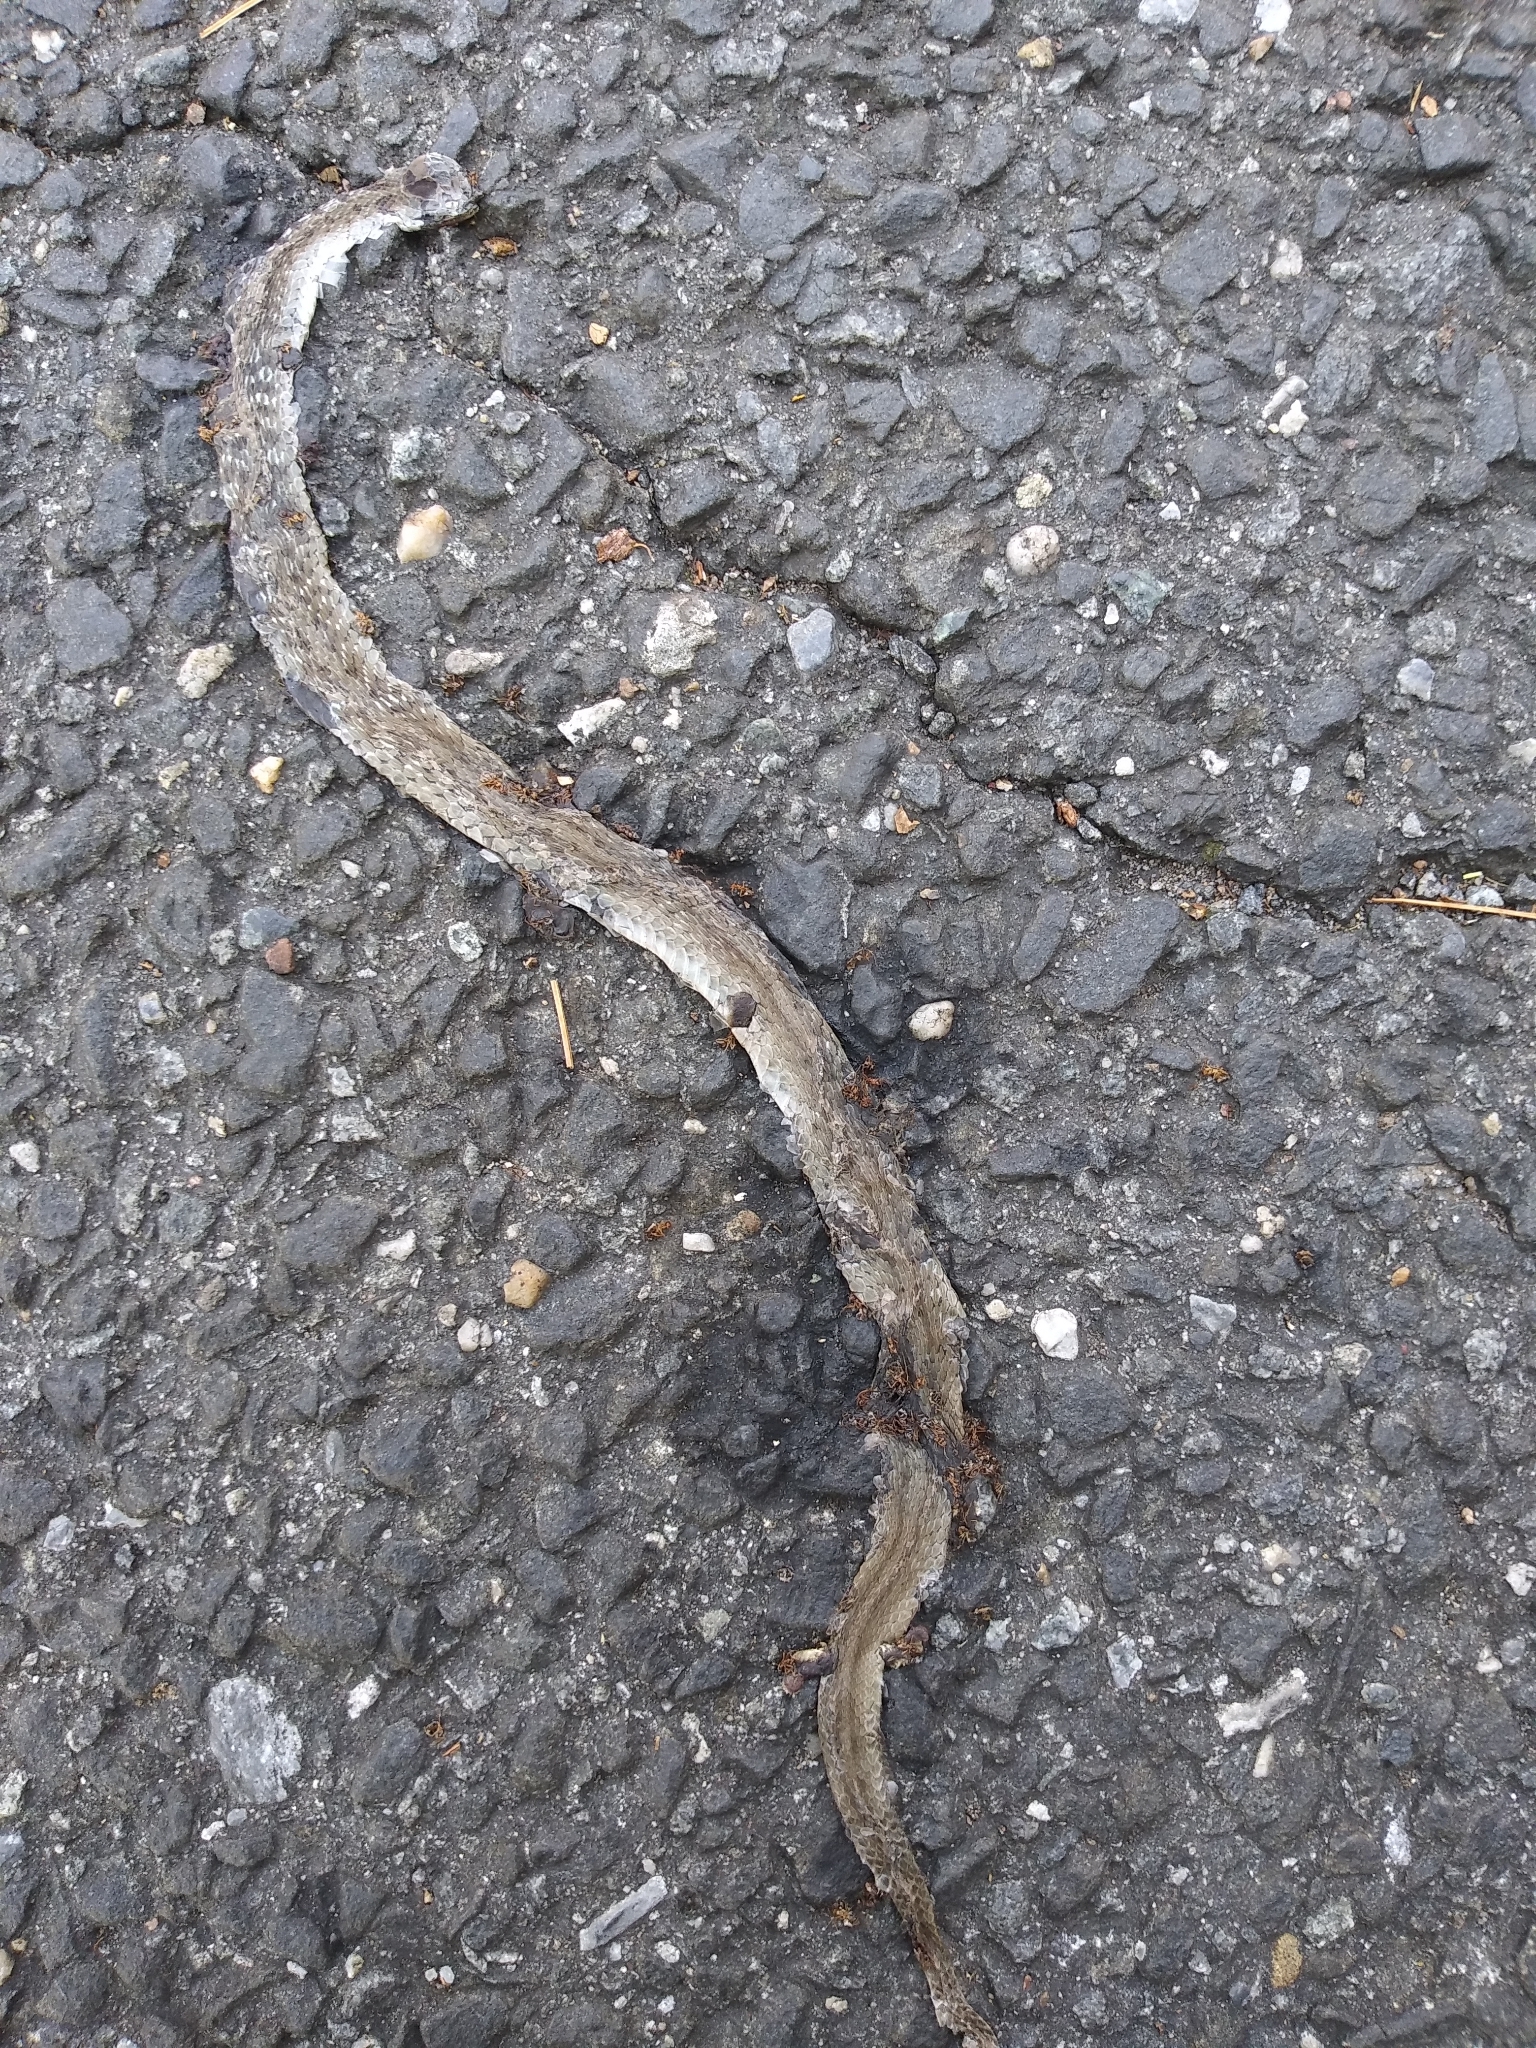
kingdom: Animalia
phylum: Chordata
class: Squamata
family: Colubridae
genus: Storeria
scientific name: Storeria dekayi
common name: (dekay’s) brown snake
